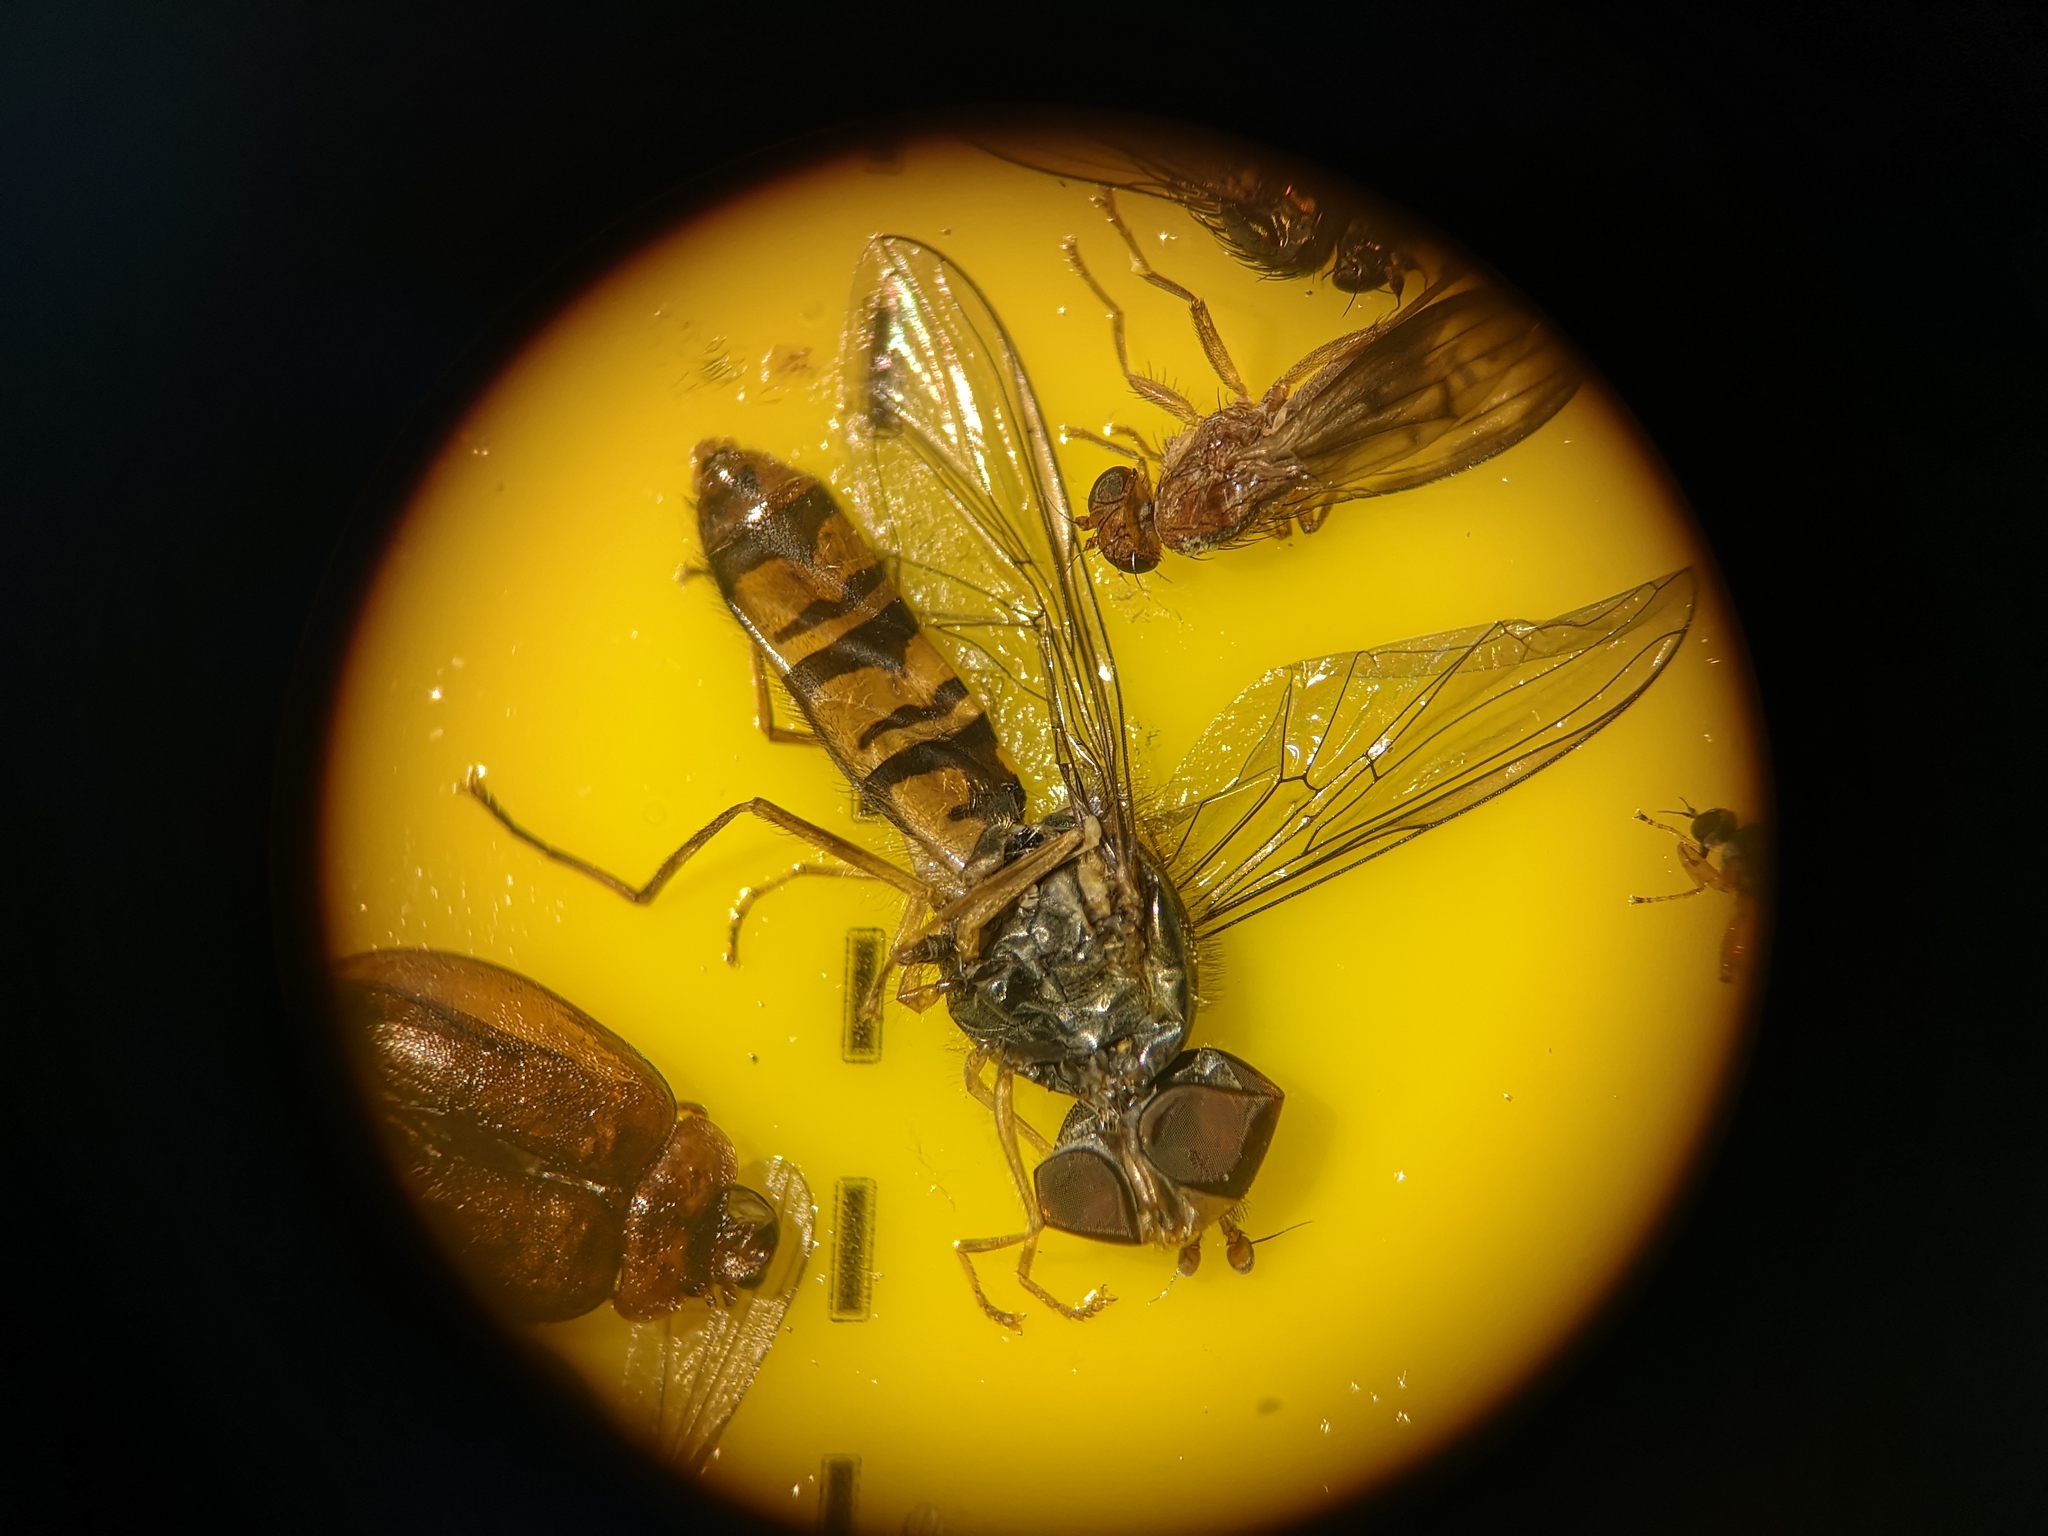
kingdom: Animalia
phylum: Arthropoda
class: Insecta
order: Diptera
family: Syrphidae
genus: Episyrphus
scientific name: Episyrphus balteatus
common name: Marmalade hoverfly
